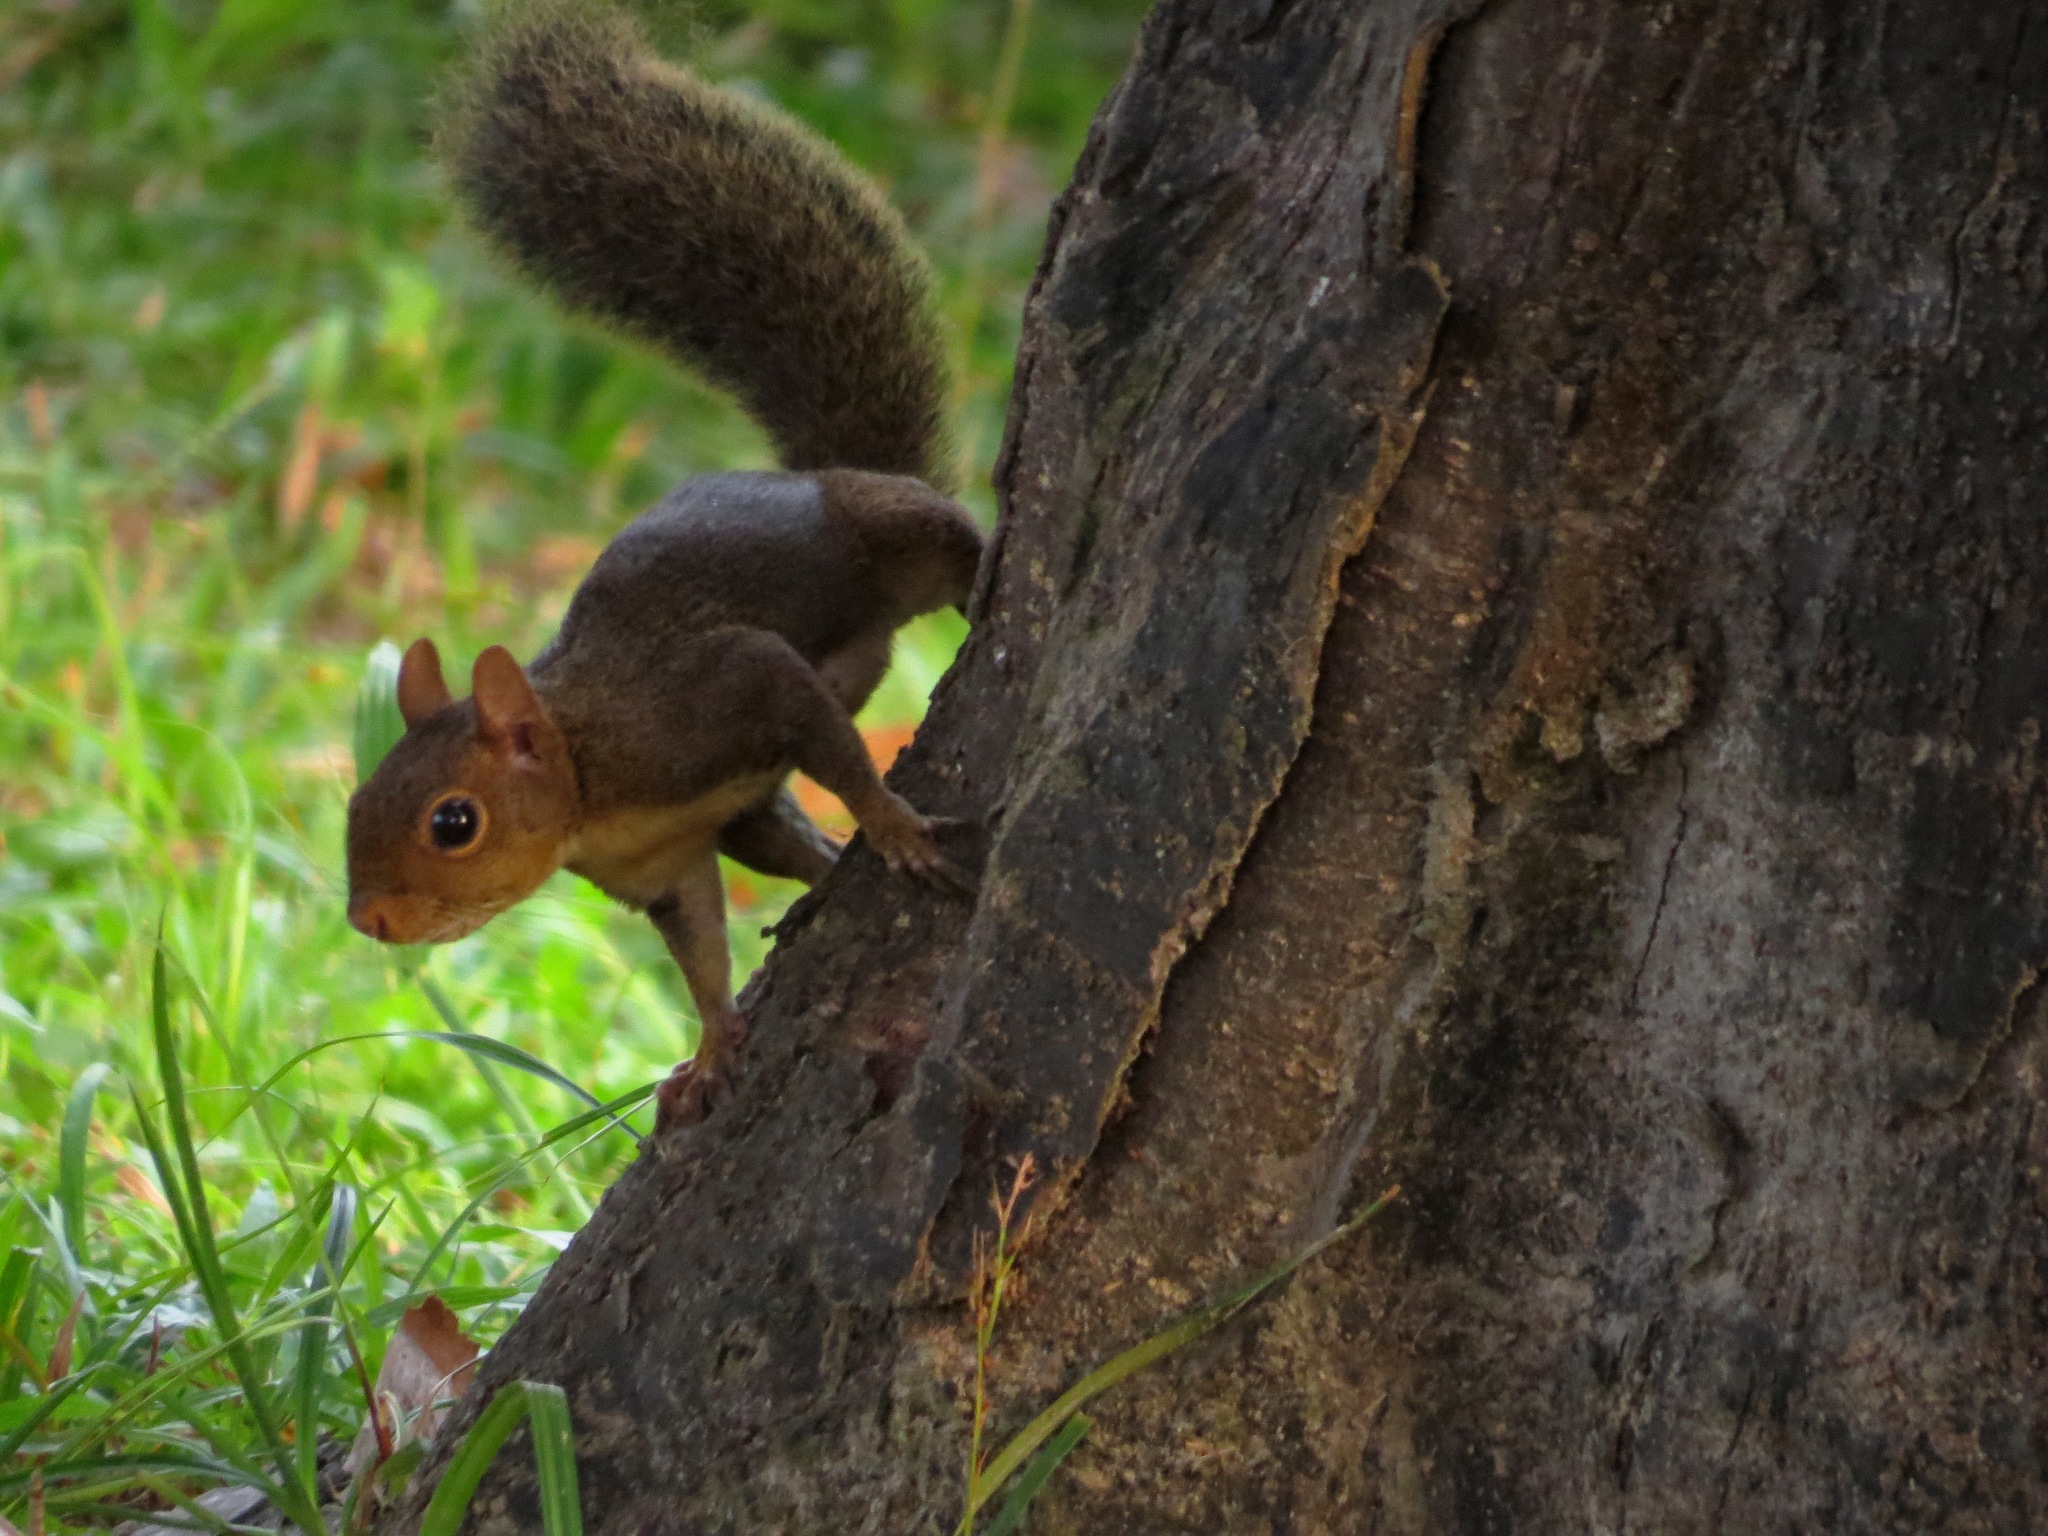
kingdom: Animalia
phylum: Chordata
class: Mammalia
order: Rodentia
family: Sciuridae
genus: Sciurus
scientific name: Sciurus aestuans
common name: Guianan squirrel
